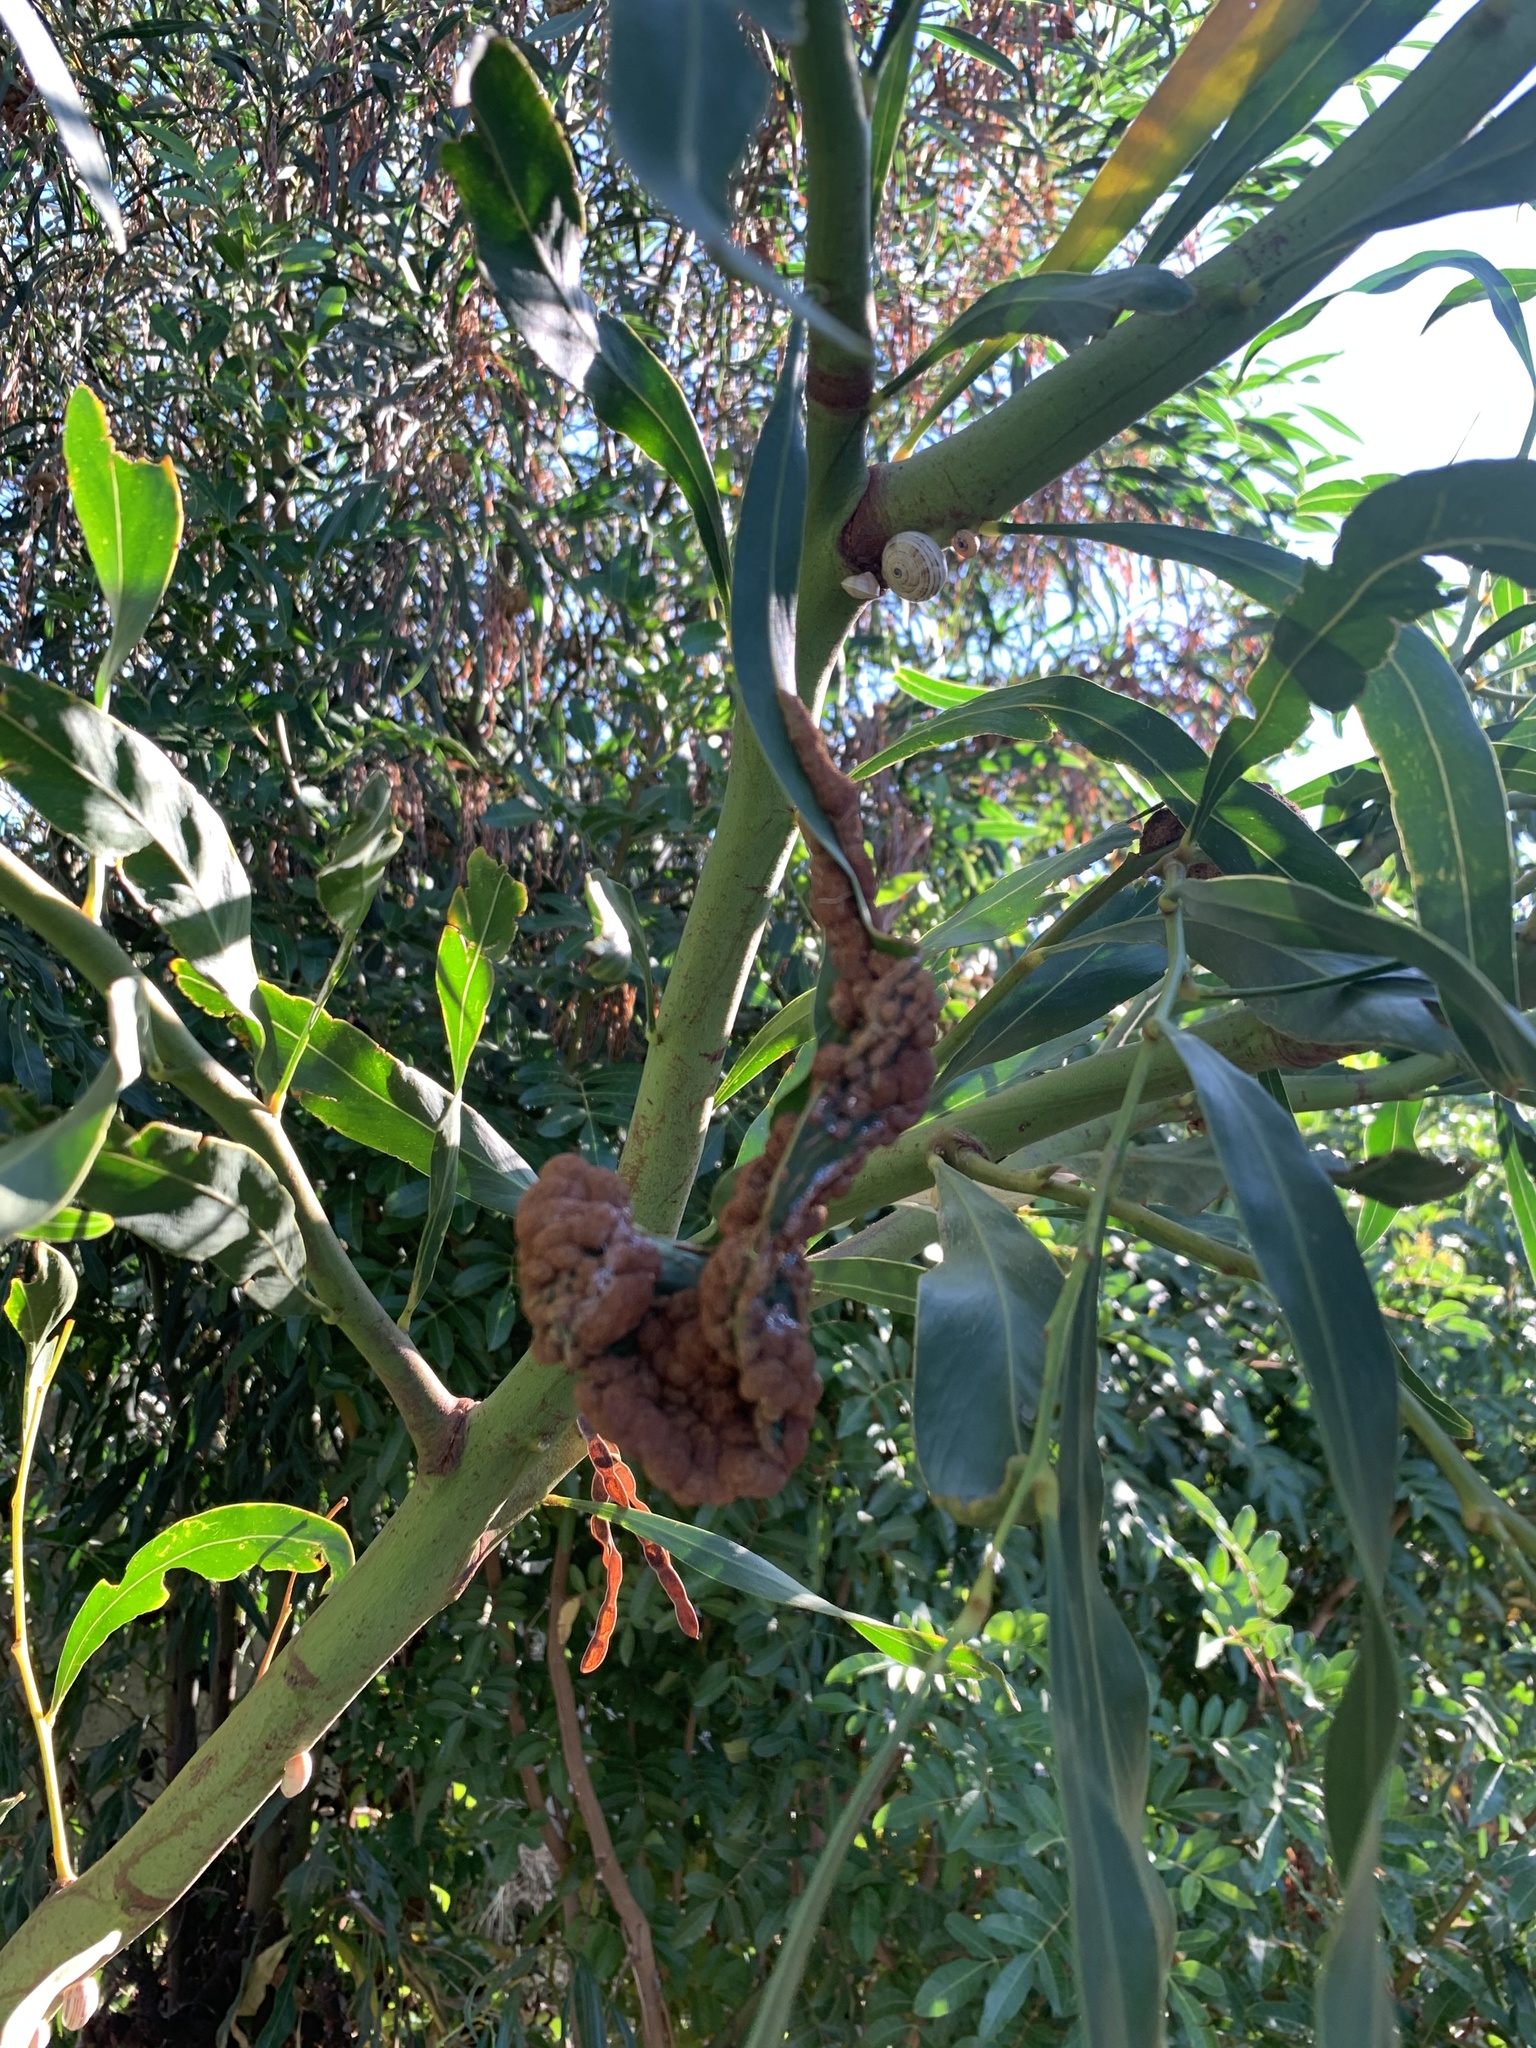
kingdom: Plantae
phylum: Tracheophyta
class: Magnoliopsida
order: Fabales
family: Fabaceae
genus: Acacia
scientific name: Acacia saligna
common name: Orange wattle
